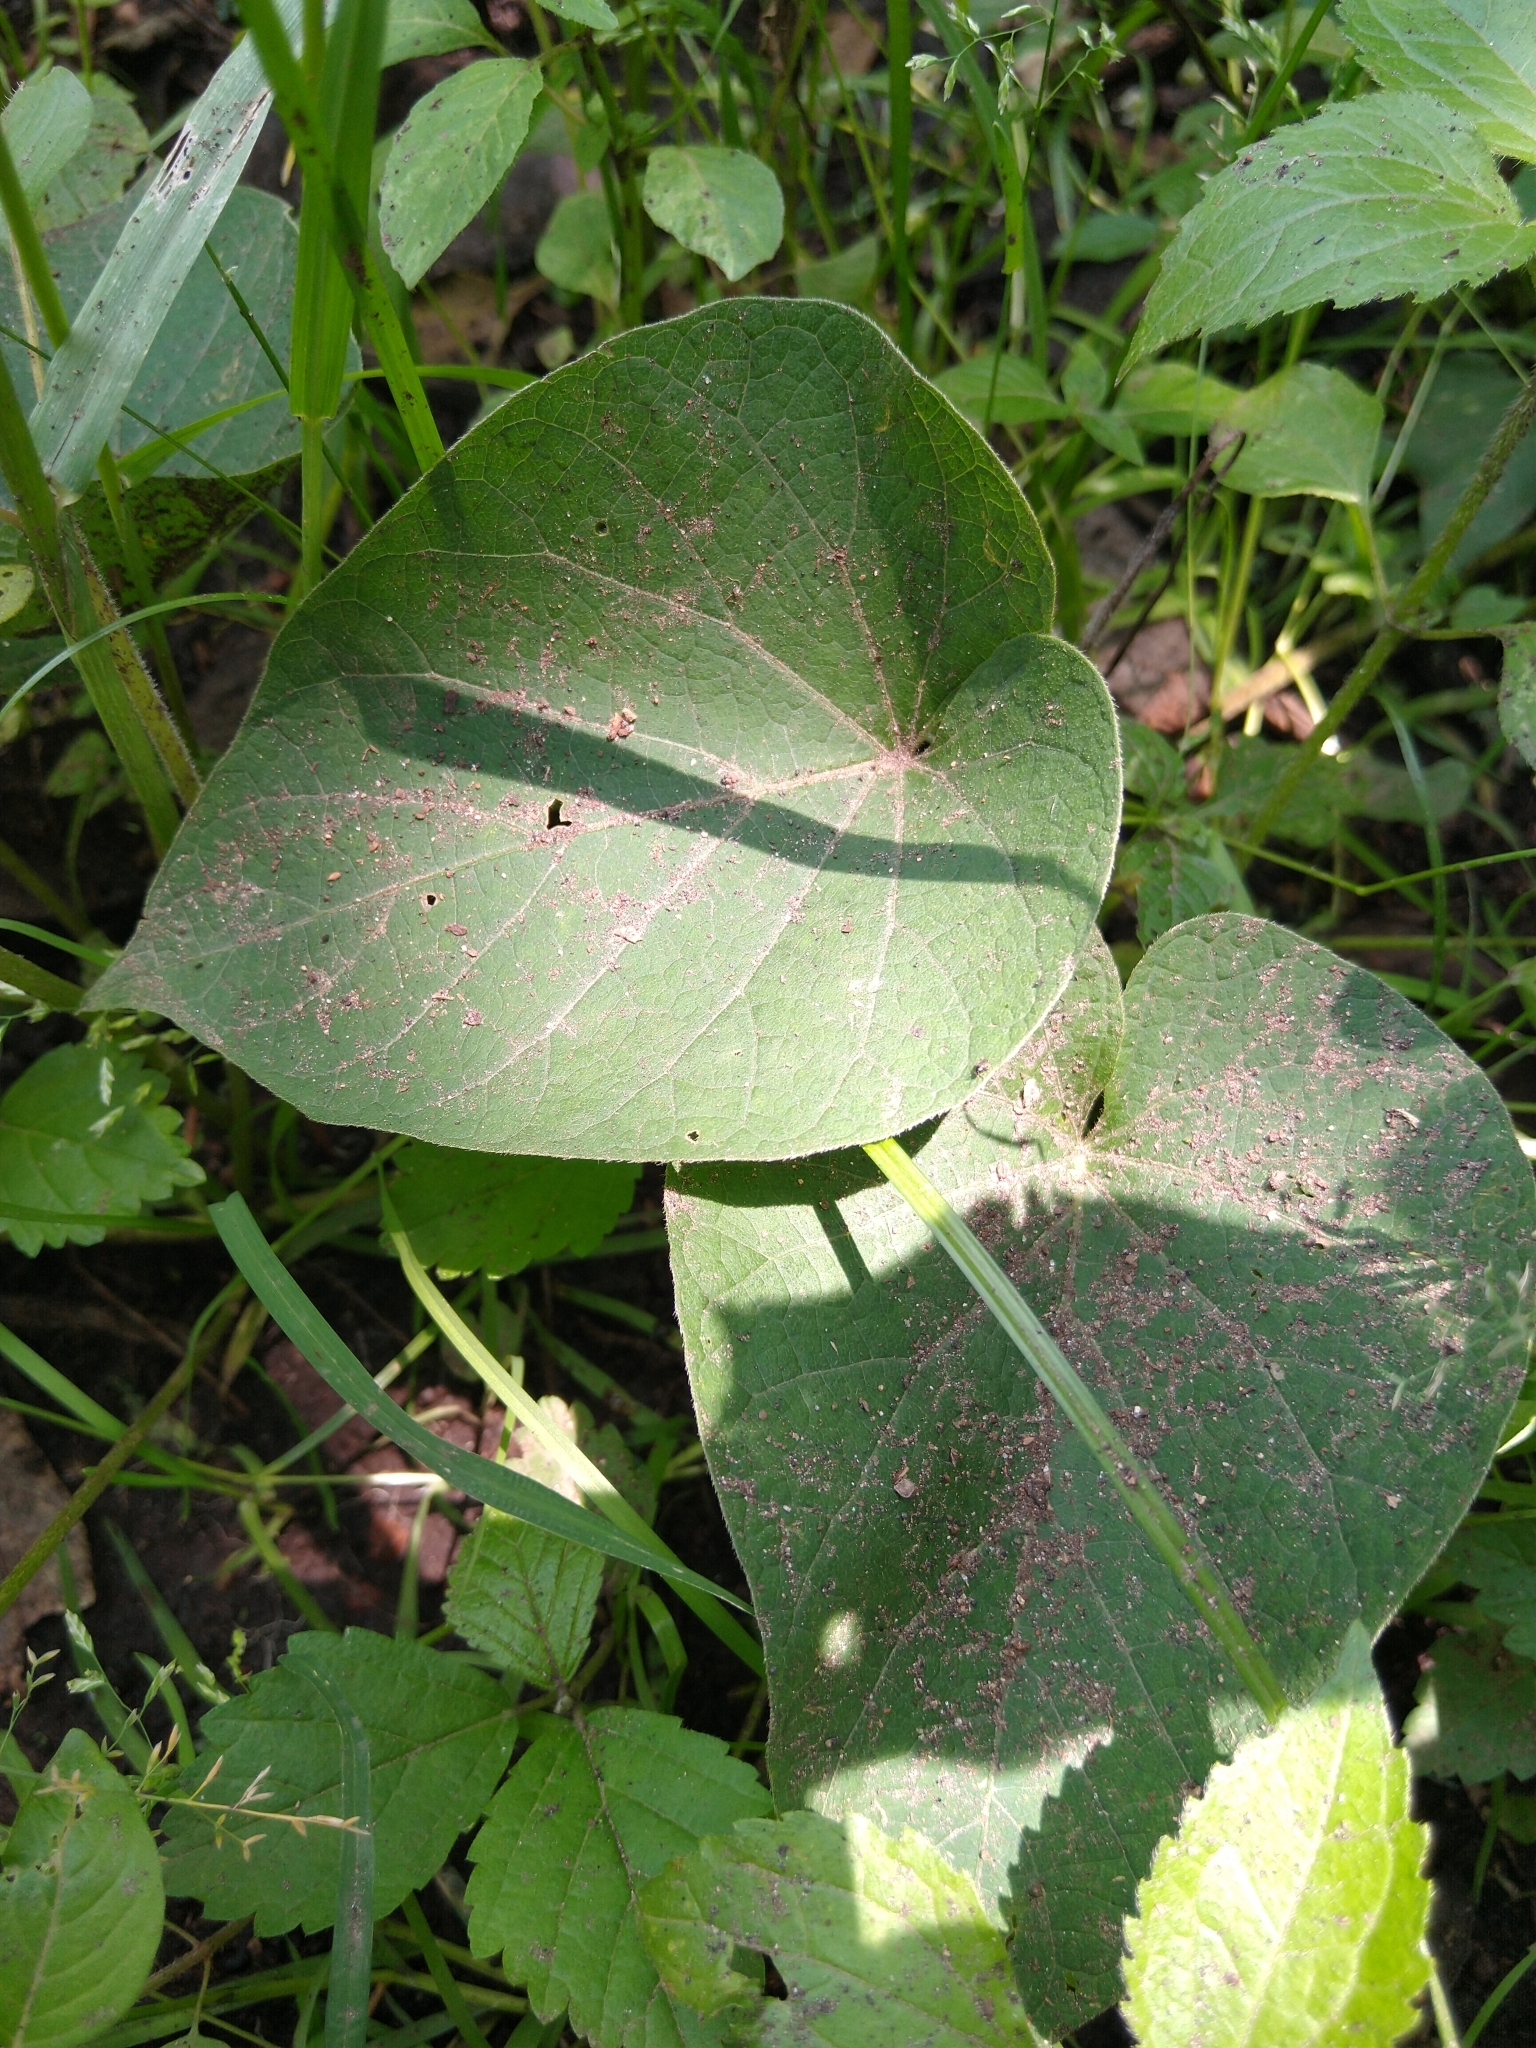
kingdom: Plantae
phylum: Tracheophyta
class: Magnoliopsida
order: Solanales
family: Convolvulaceae
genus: Ipomoea
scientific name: Ipomoea orizabensis
